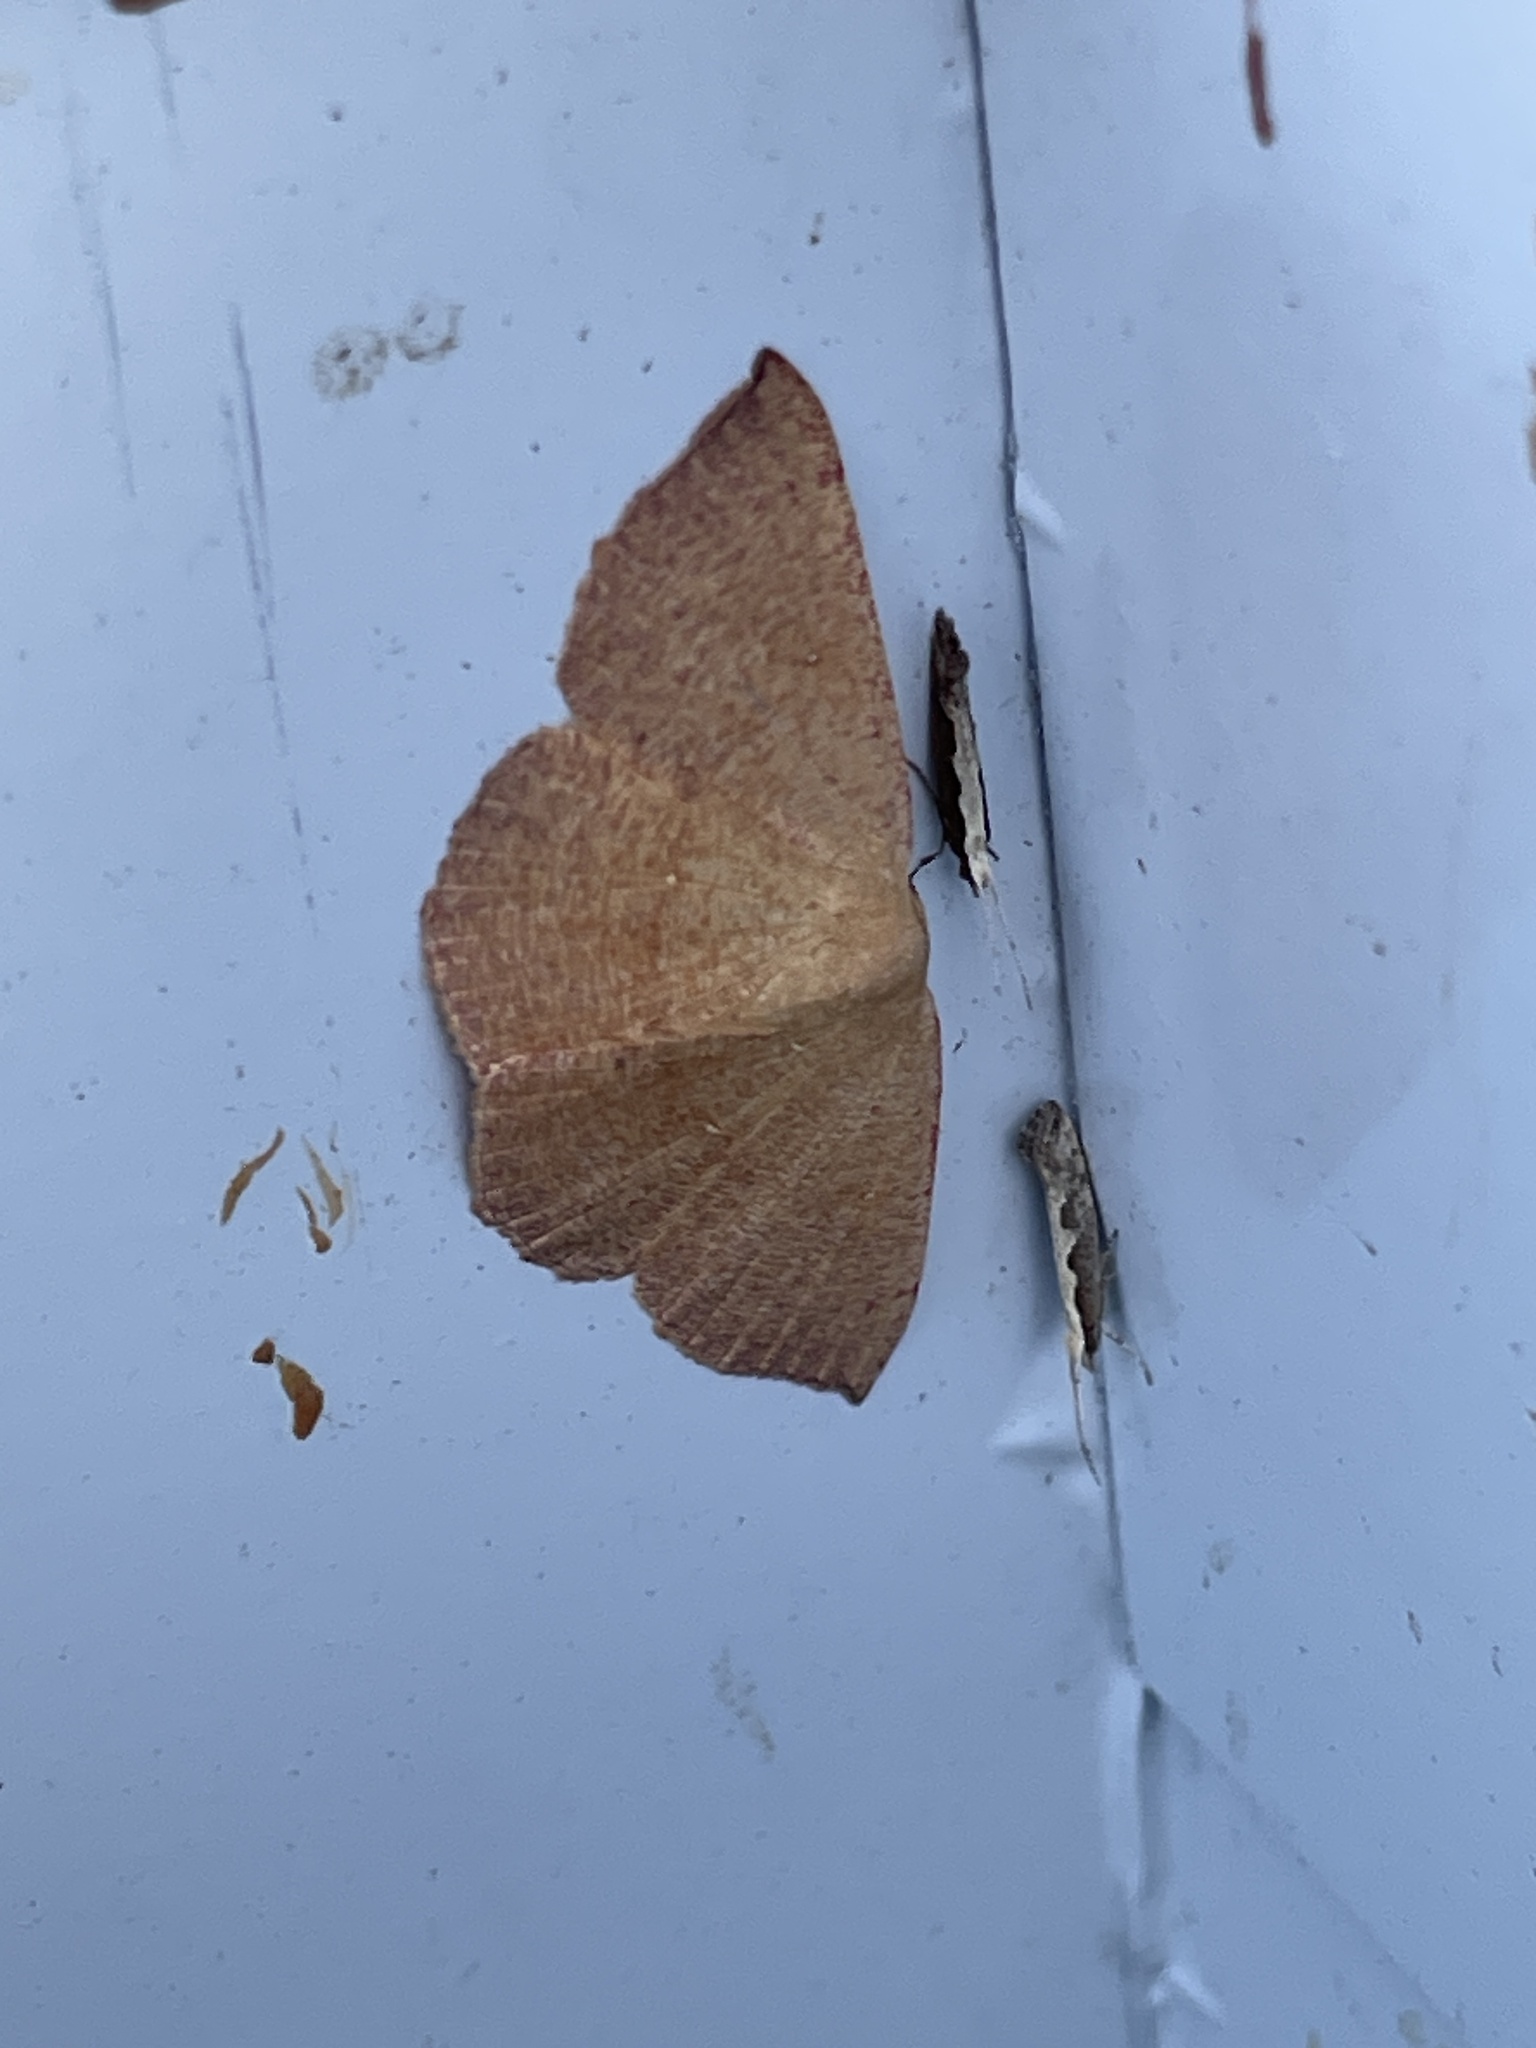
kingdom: Animalia
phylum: Arthropoda
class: Insecta
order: Lepidoptera
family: Geometridae
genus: Cyclophora
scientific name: Cyclophora puppillaria
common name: Blair's mocha
